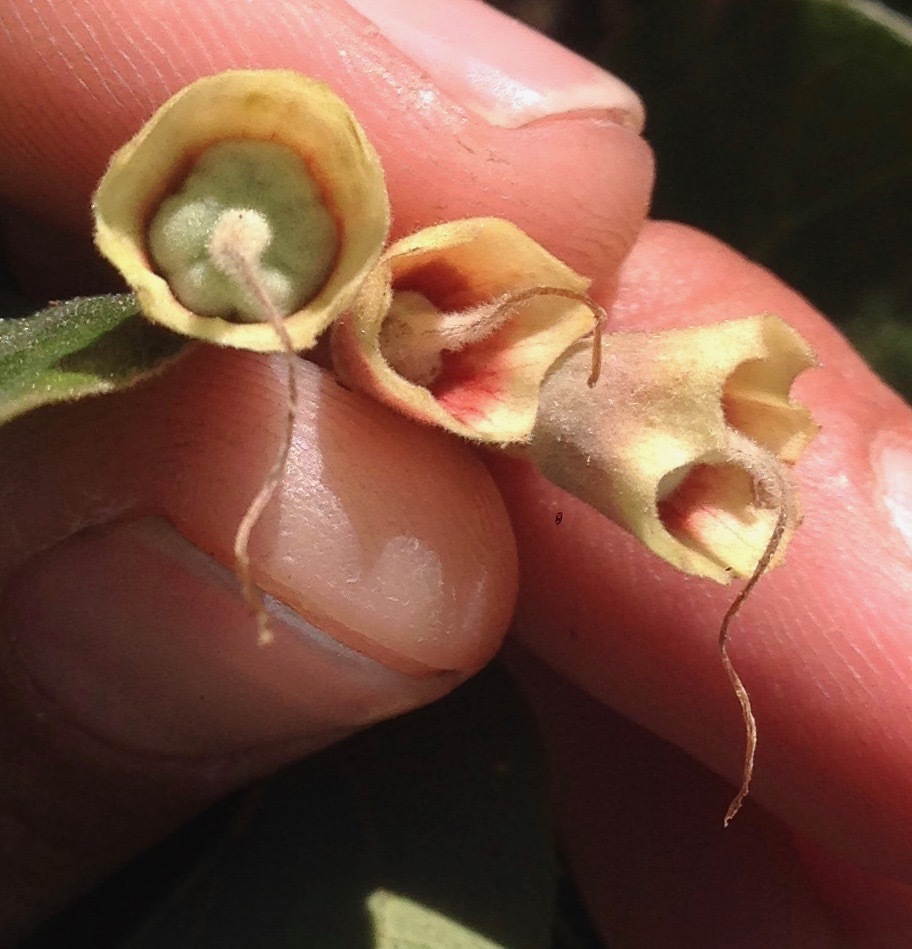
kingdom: Plantae
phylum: Tracheophyta
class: Magnoliopsida
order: Ericales
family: Styracaceae
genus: Styrax
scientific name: Styrax redivivus
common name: California styrax
